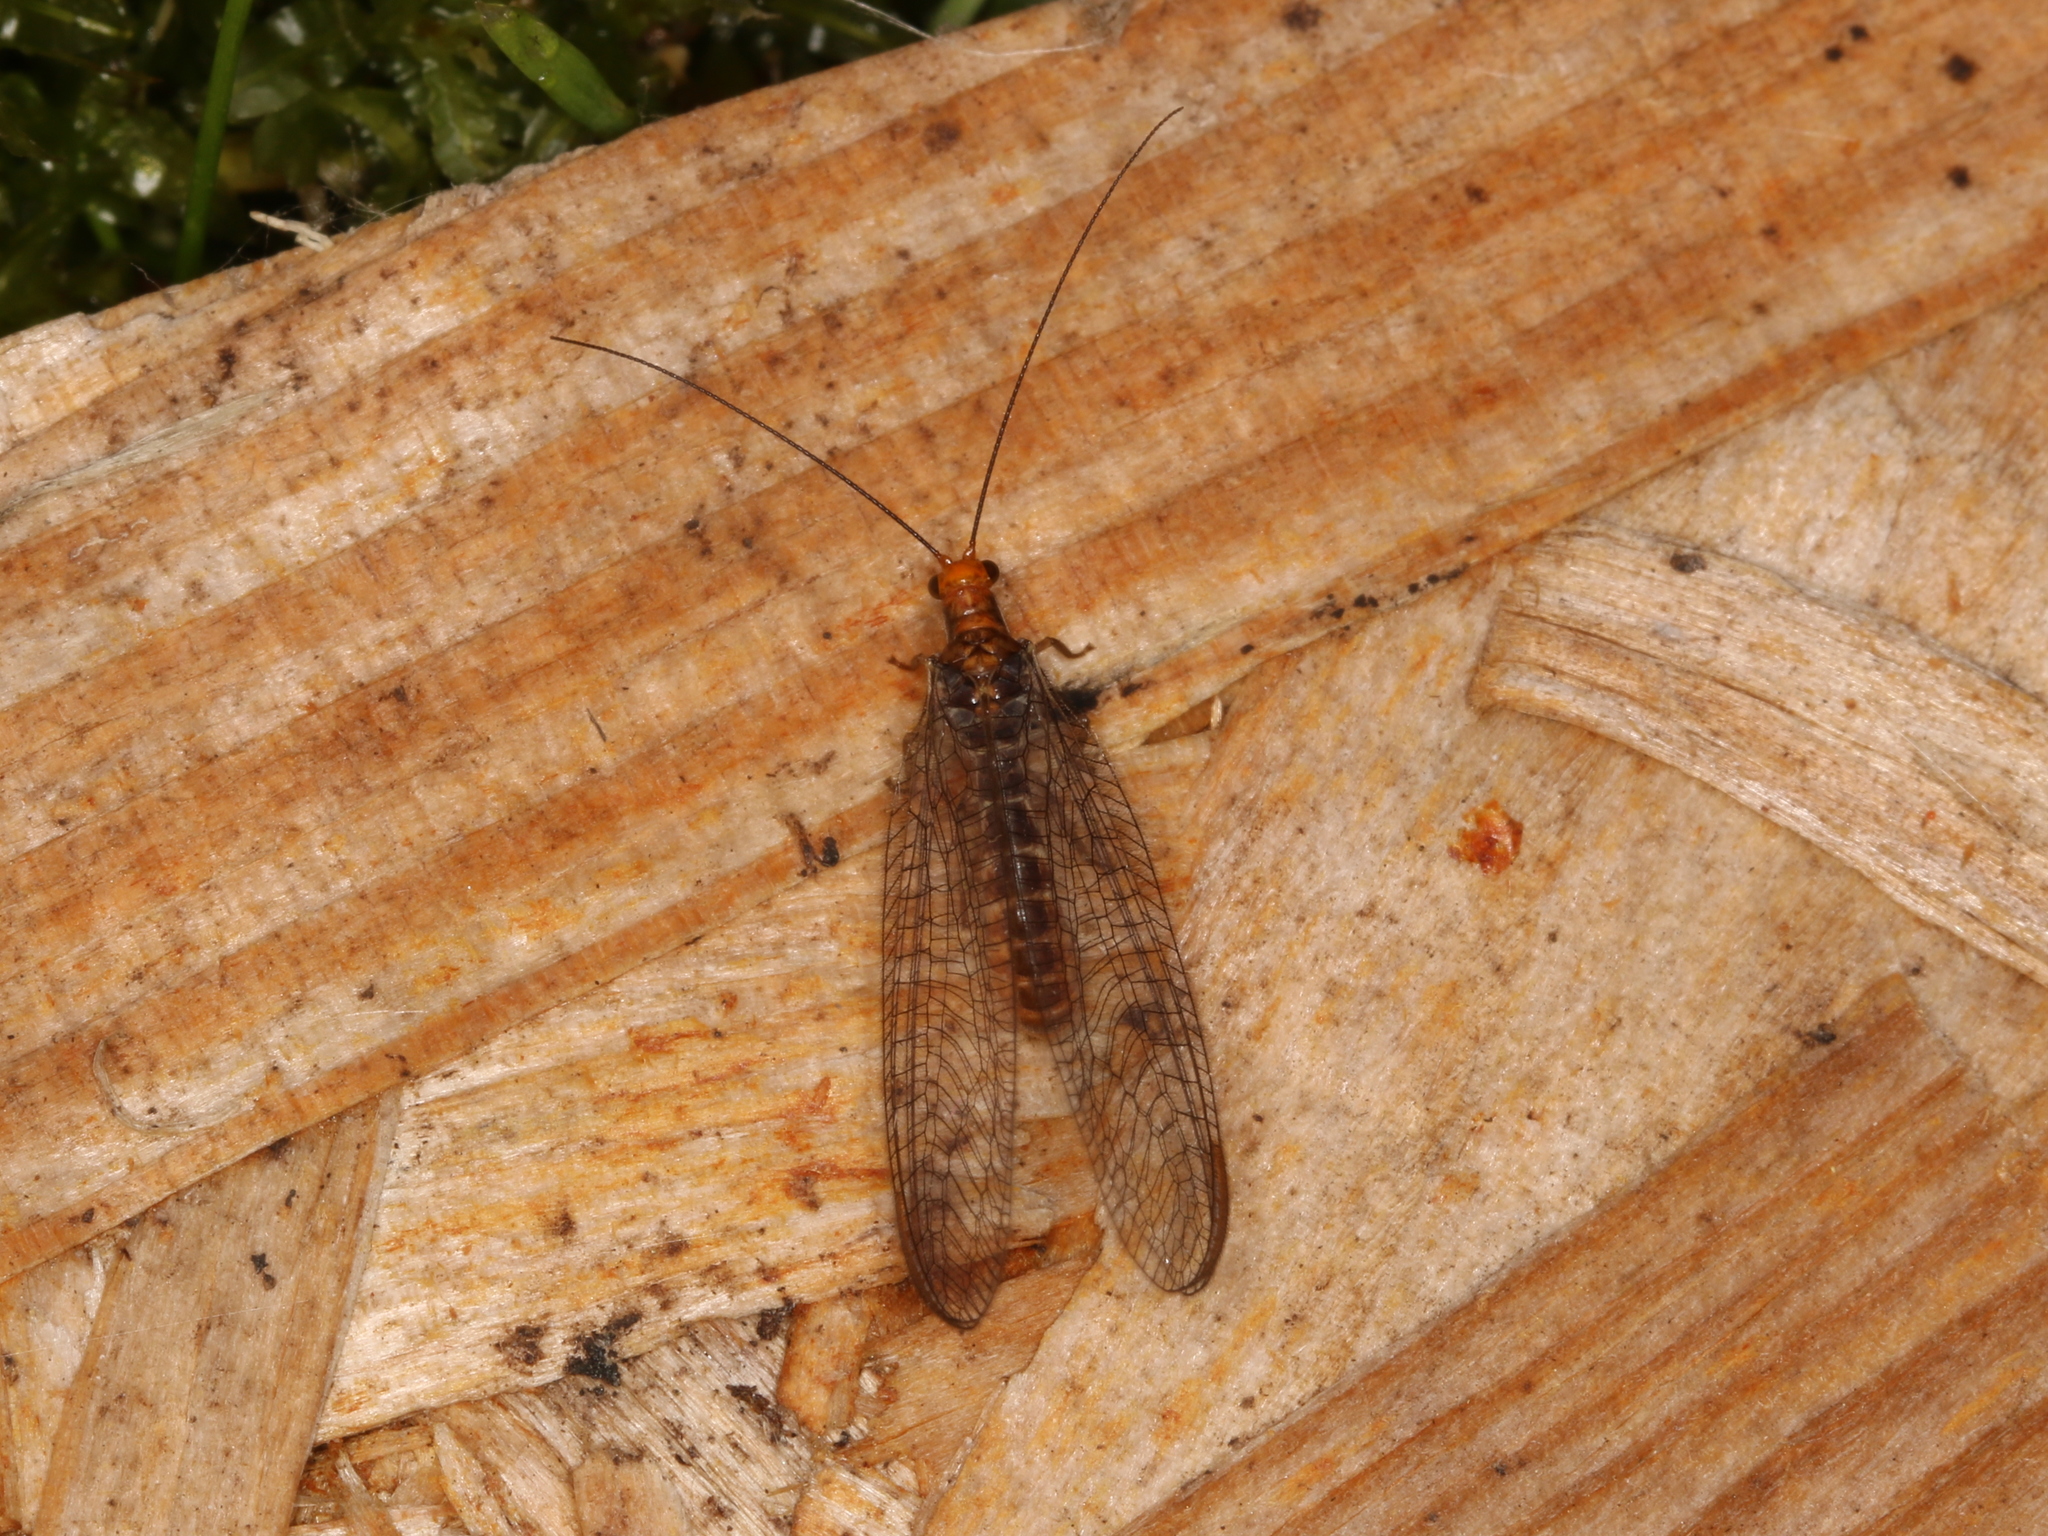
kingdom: Animalia
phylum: Arthropoda
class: Insecta
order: Neuroptera
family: Chrysopidae
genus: Nothochrysa
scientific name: Nothochrysa capitata
